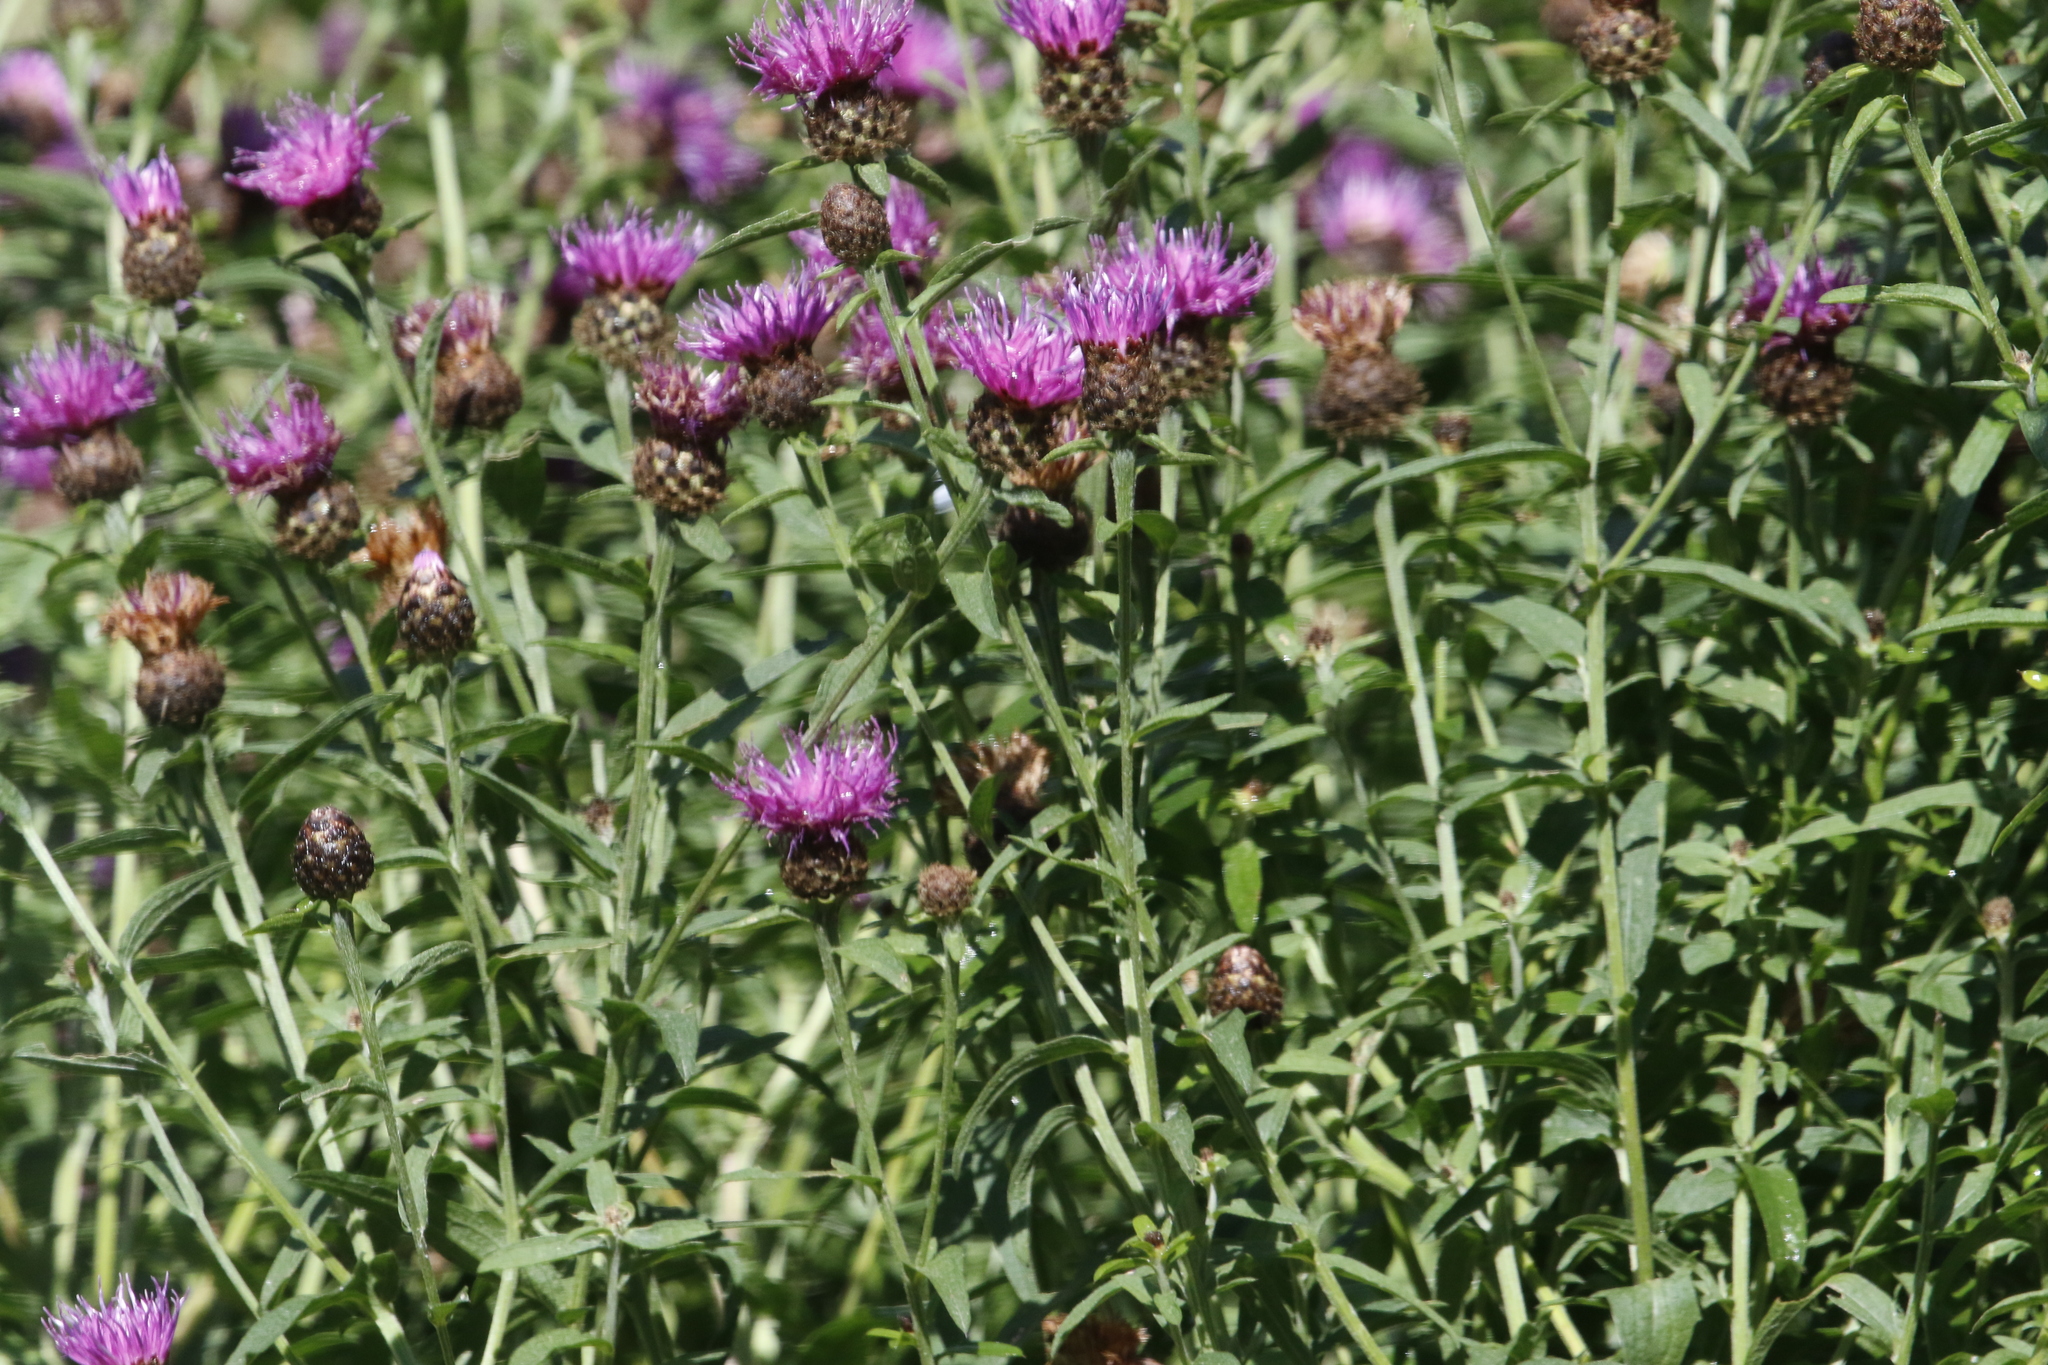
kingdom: Plantae
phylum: Tracheophyta
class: Magnoliopsida
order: Asterales
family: Asteraceae
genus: Centaurea
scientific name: Centaurea nigra
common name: Lesser knapweed
